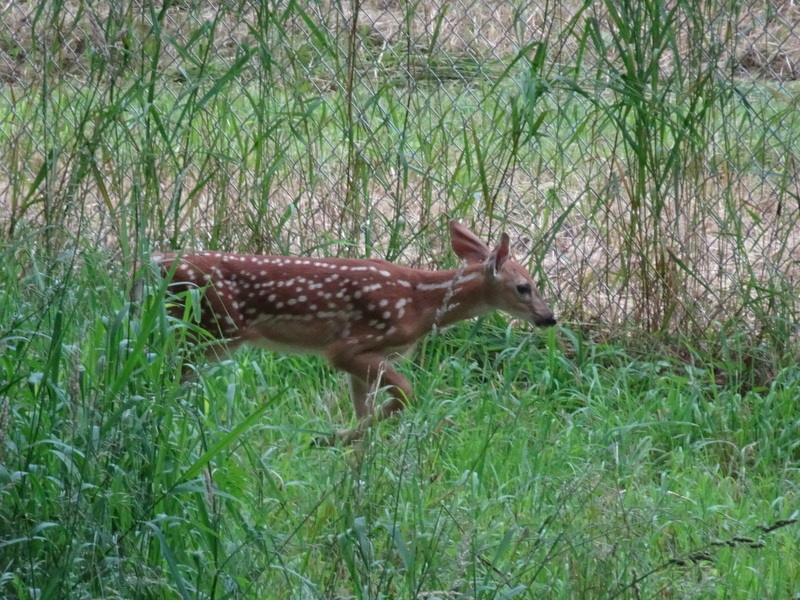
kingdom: Animalia
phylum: Chordata
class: Mammalia
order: Artiodactyla
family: Cervidae
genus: Odocoileus
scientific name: Odocoileus virginianus
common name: White-tailed deer
